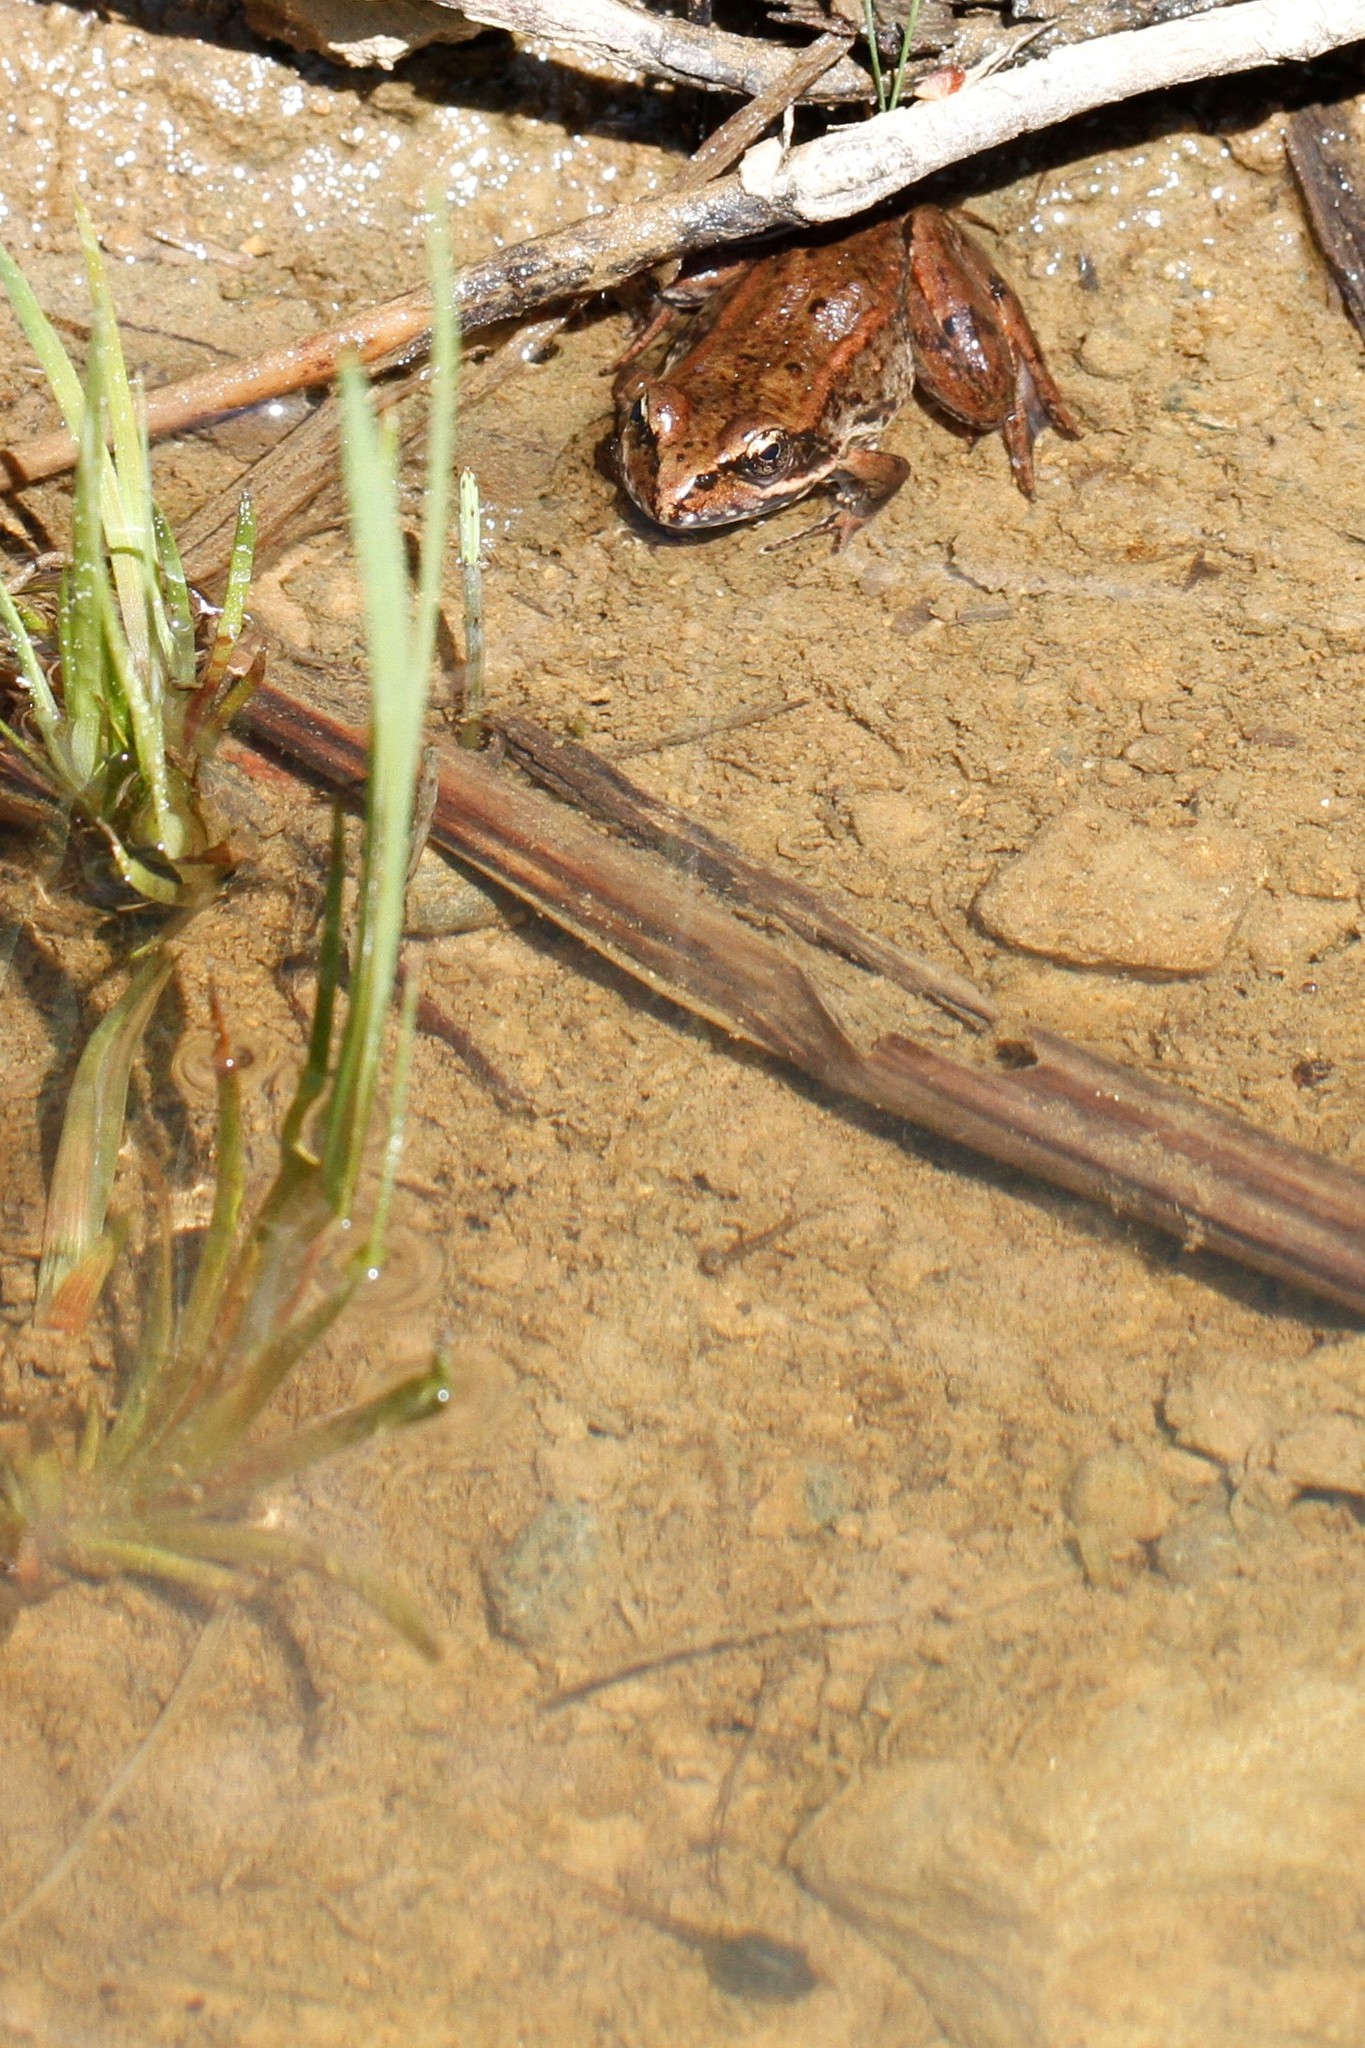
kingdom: Animalia
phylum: Chordata
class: Amphibia
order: Anura
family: Ranidae
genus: Rana
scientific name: Rana aurora
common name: Red-legged frog
